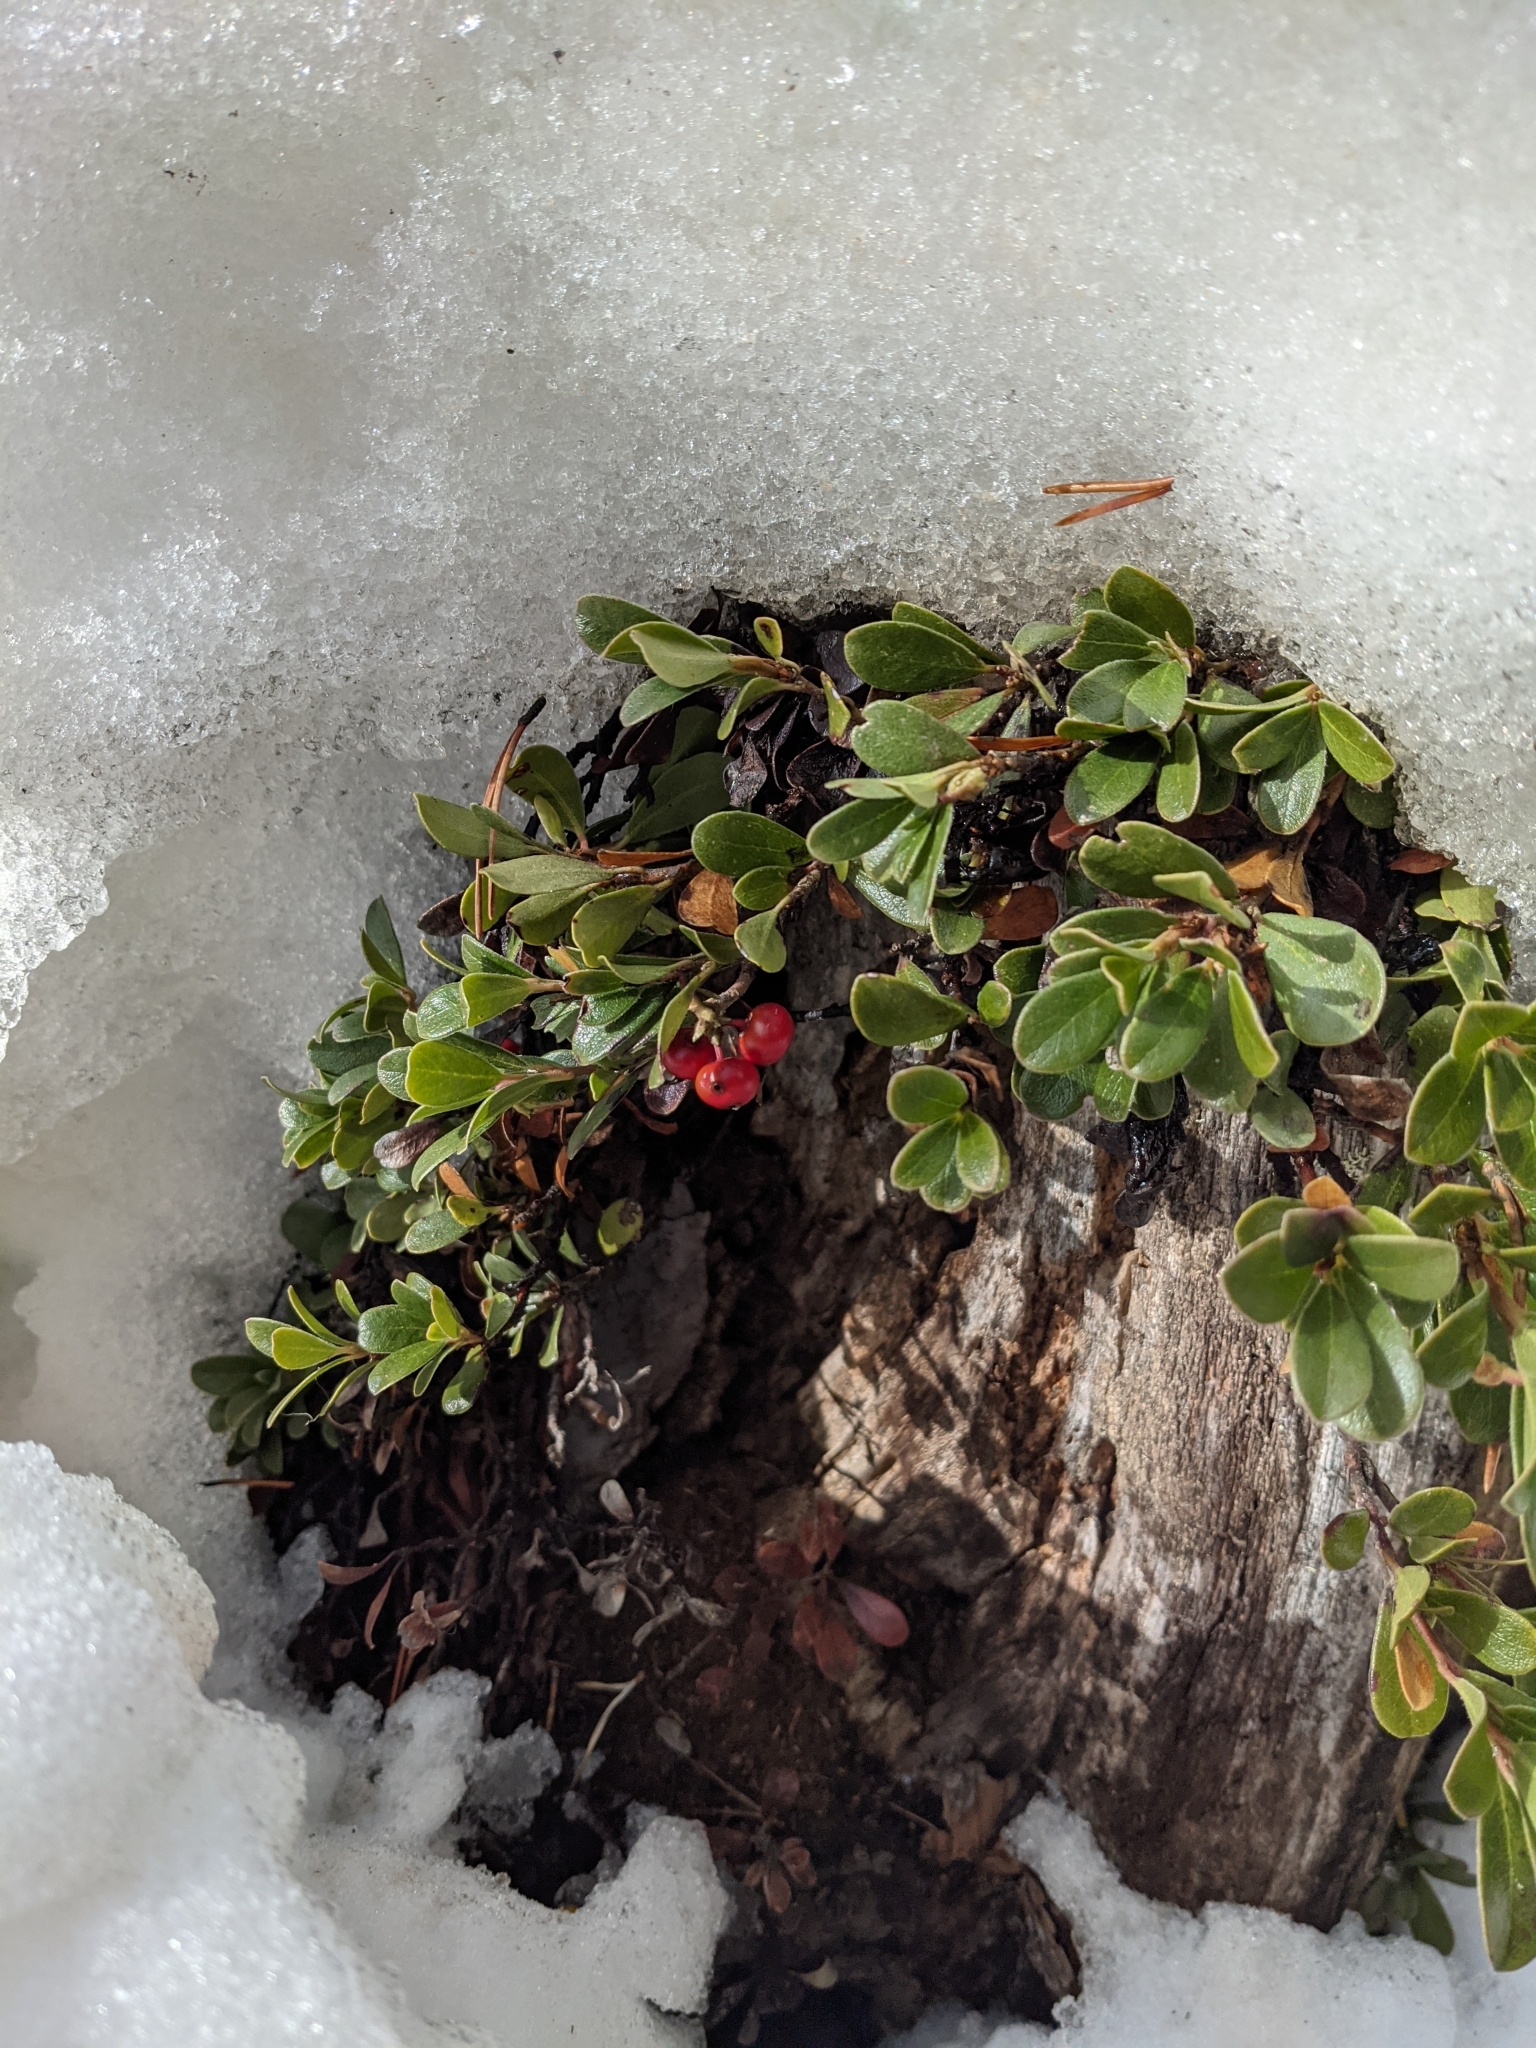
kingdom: Plantae
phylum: Tracheophyta
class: Magnoliopsida
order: Ericales
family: Ericaceae
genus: Arctostaphylos
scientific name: Arctostaphylos uva-ursi
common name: Bearberry
